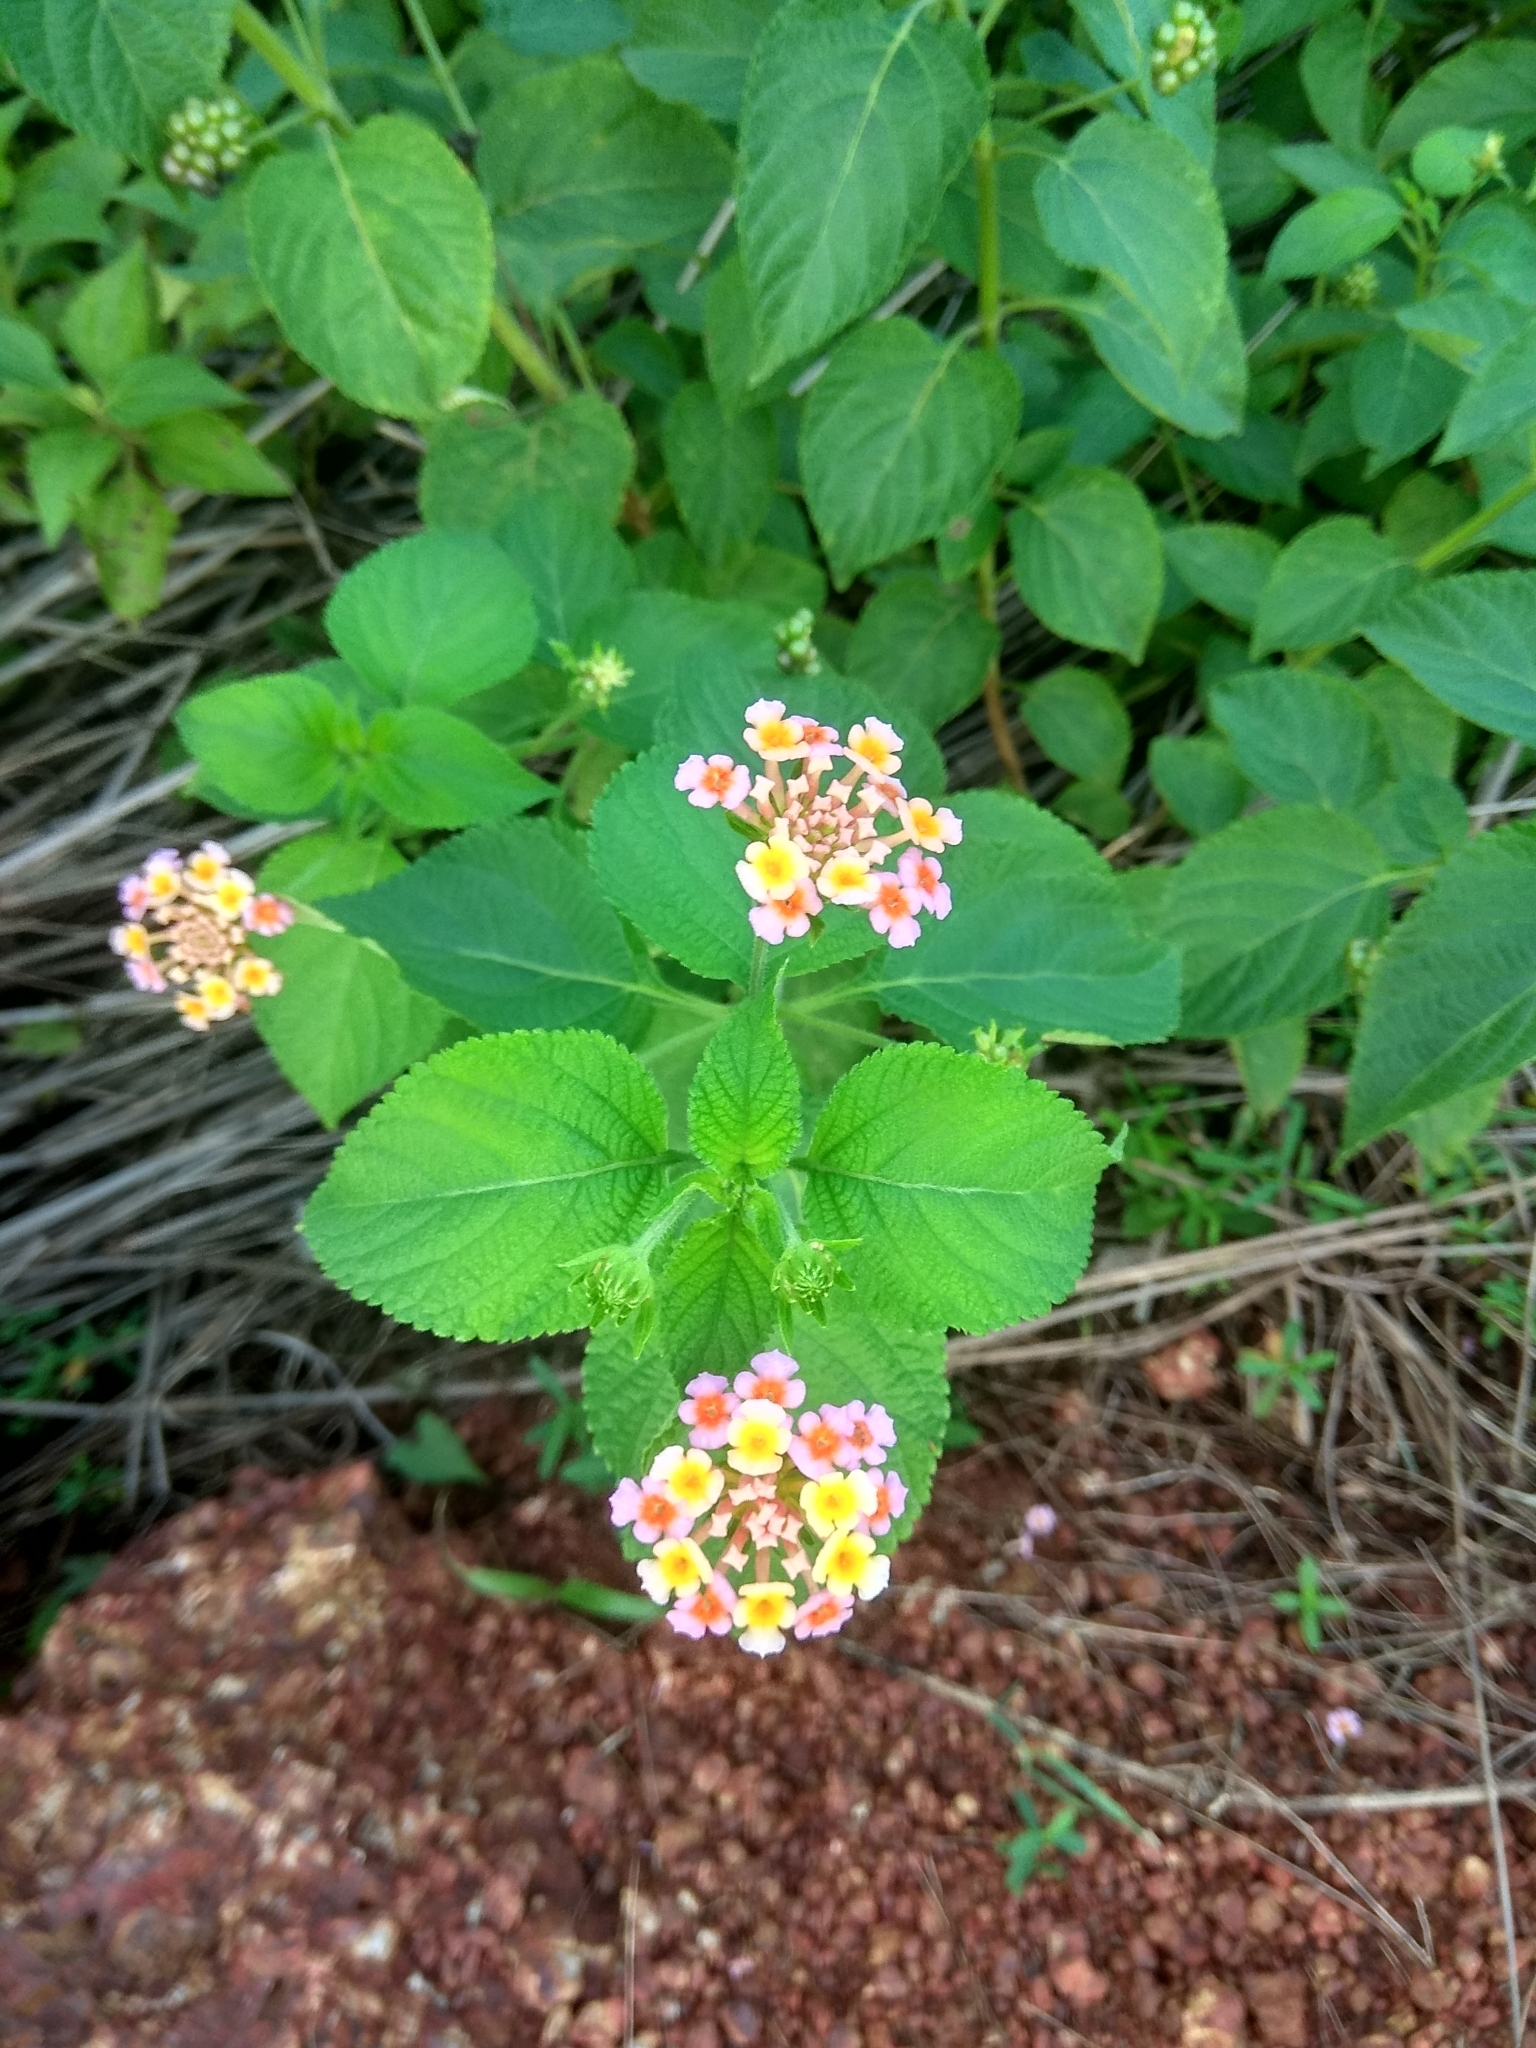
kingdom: Plantae
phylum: Tracheophyta
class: Magnoliopsida
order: Lamiales
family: Verbenaceae
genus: Lantana
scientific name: Lantana camara
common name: Lantana
